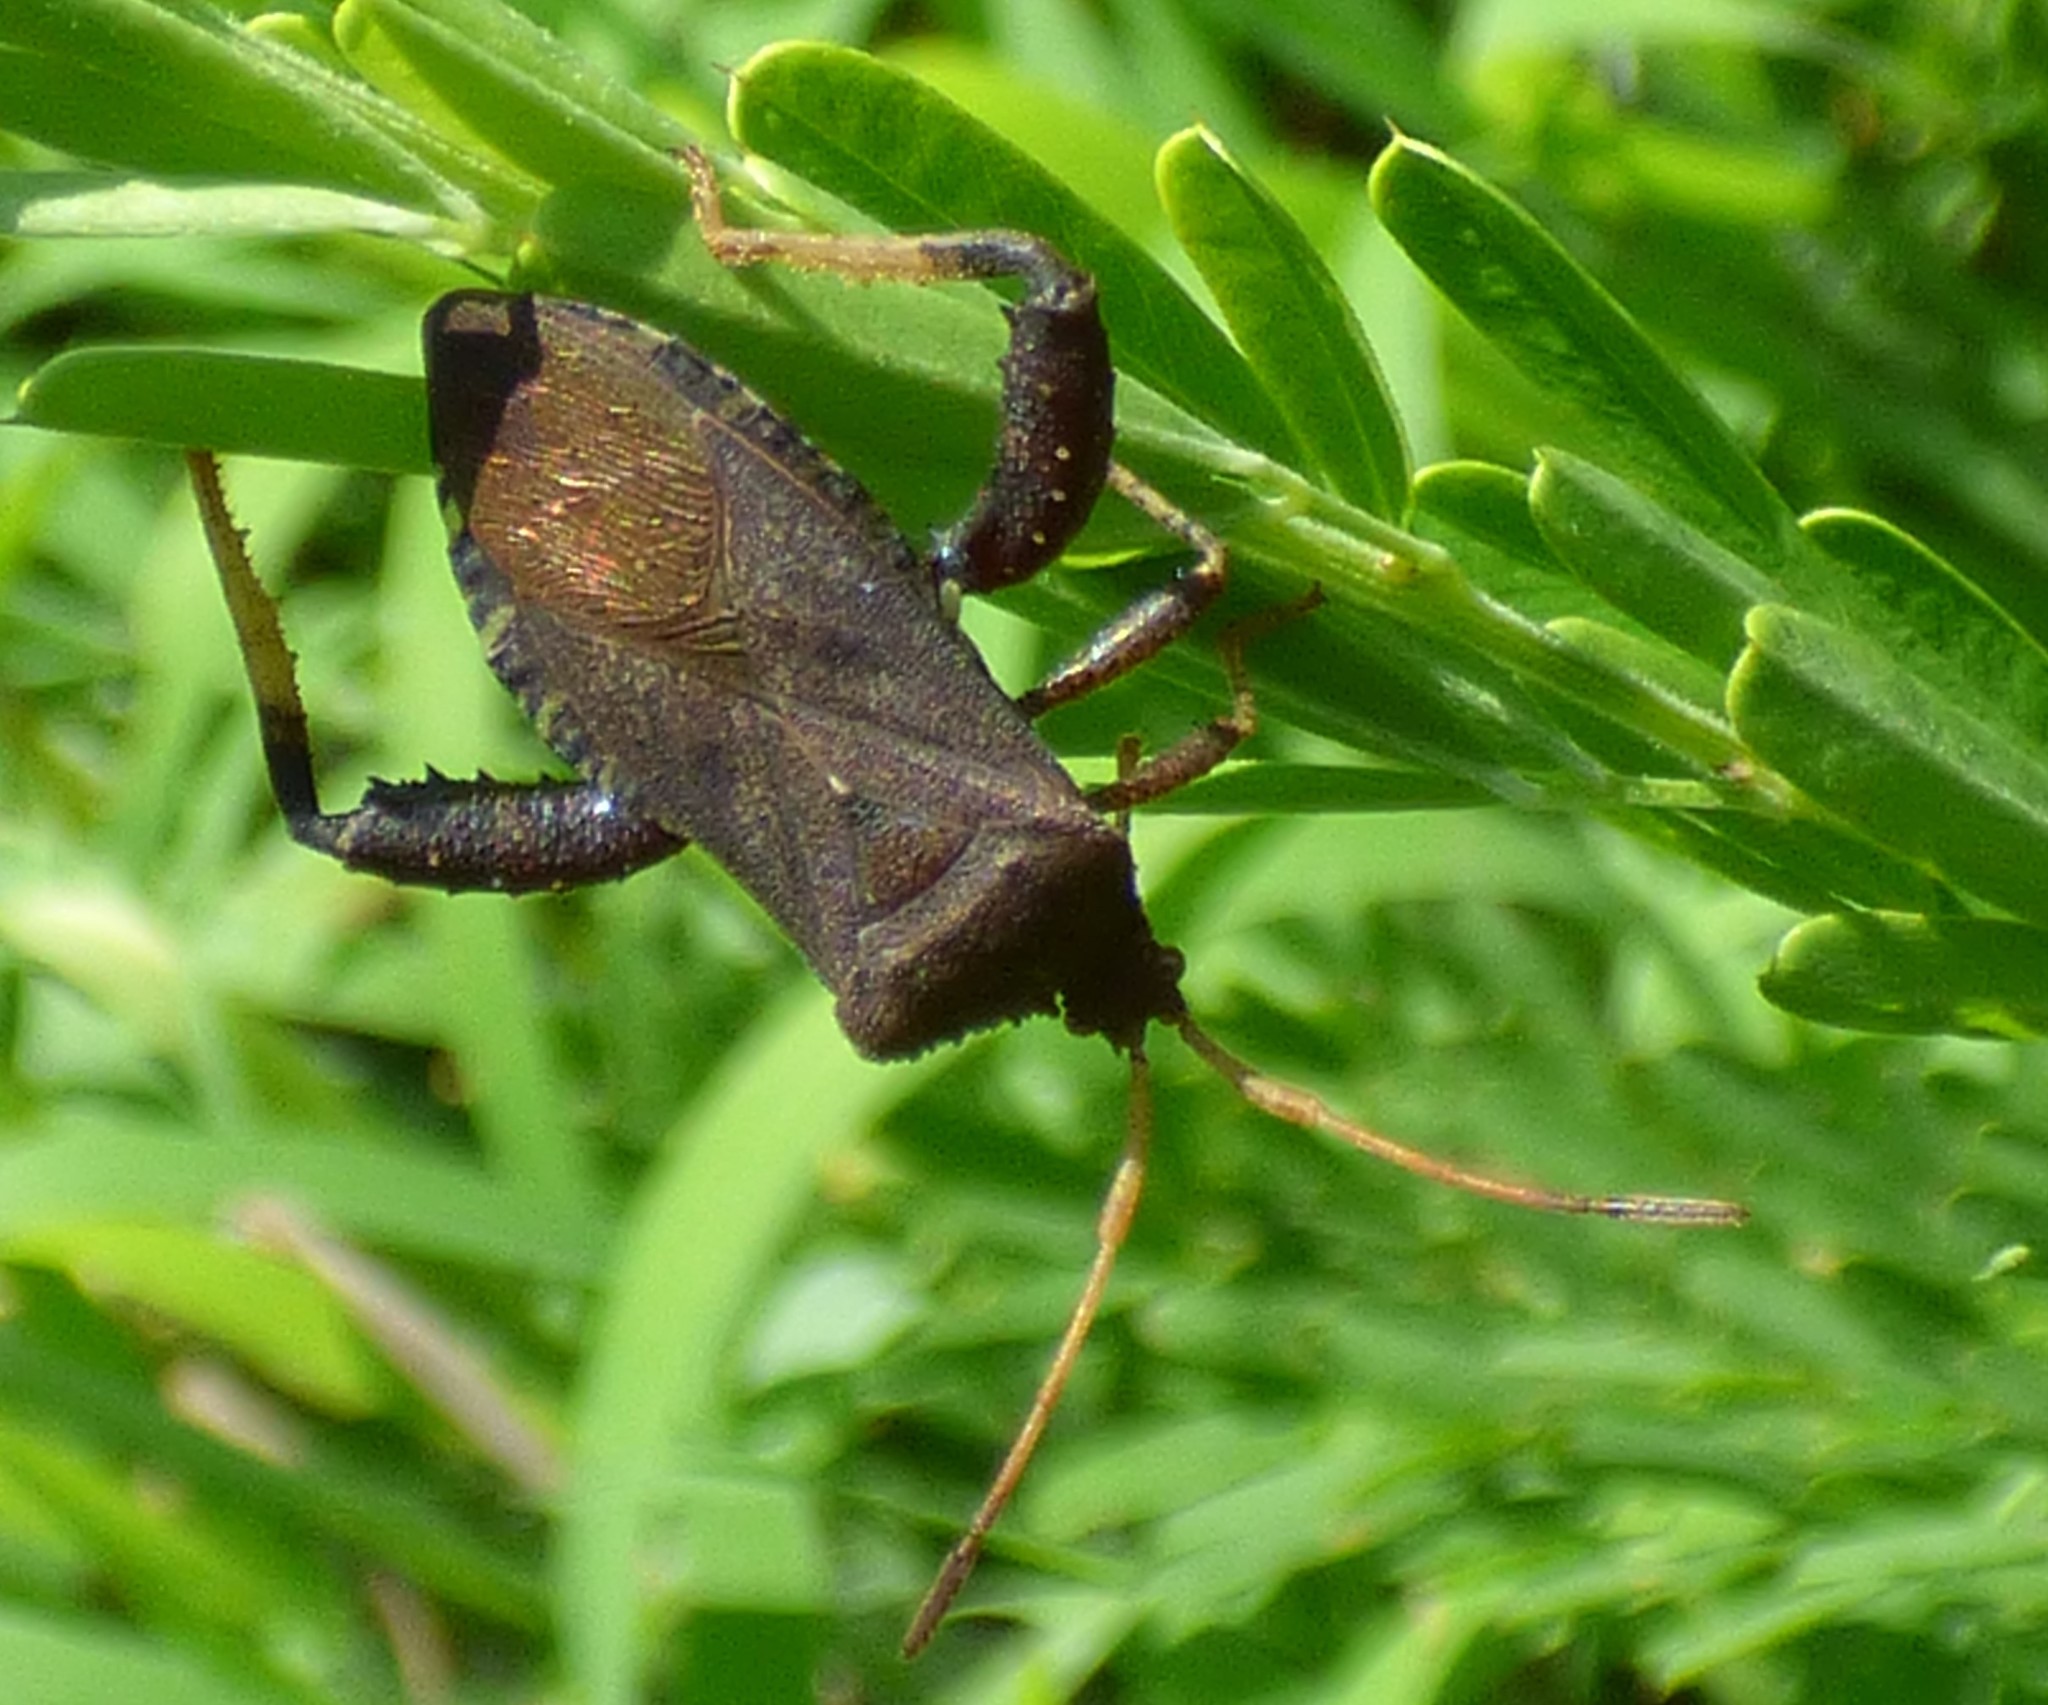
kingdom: Animalia
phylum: Arthropoda
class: Insecta
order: Hemiptera
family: Coreidae
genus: Euthochtha
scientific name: Euthochtha galeator
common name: Helmeted squash bug
